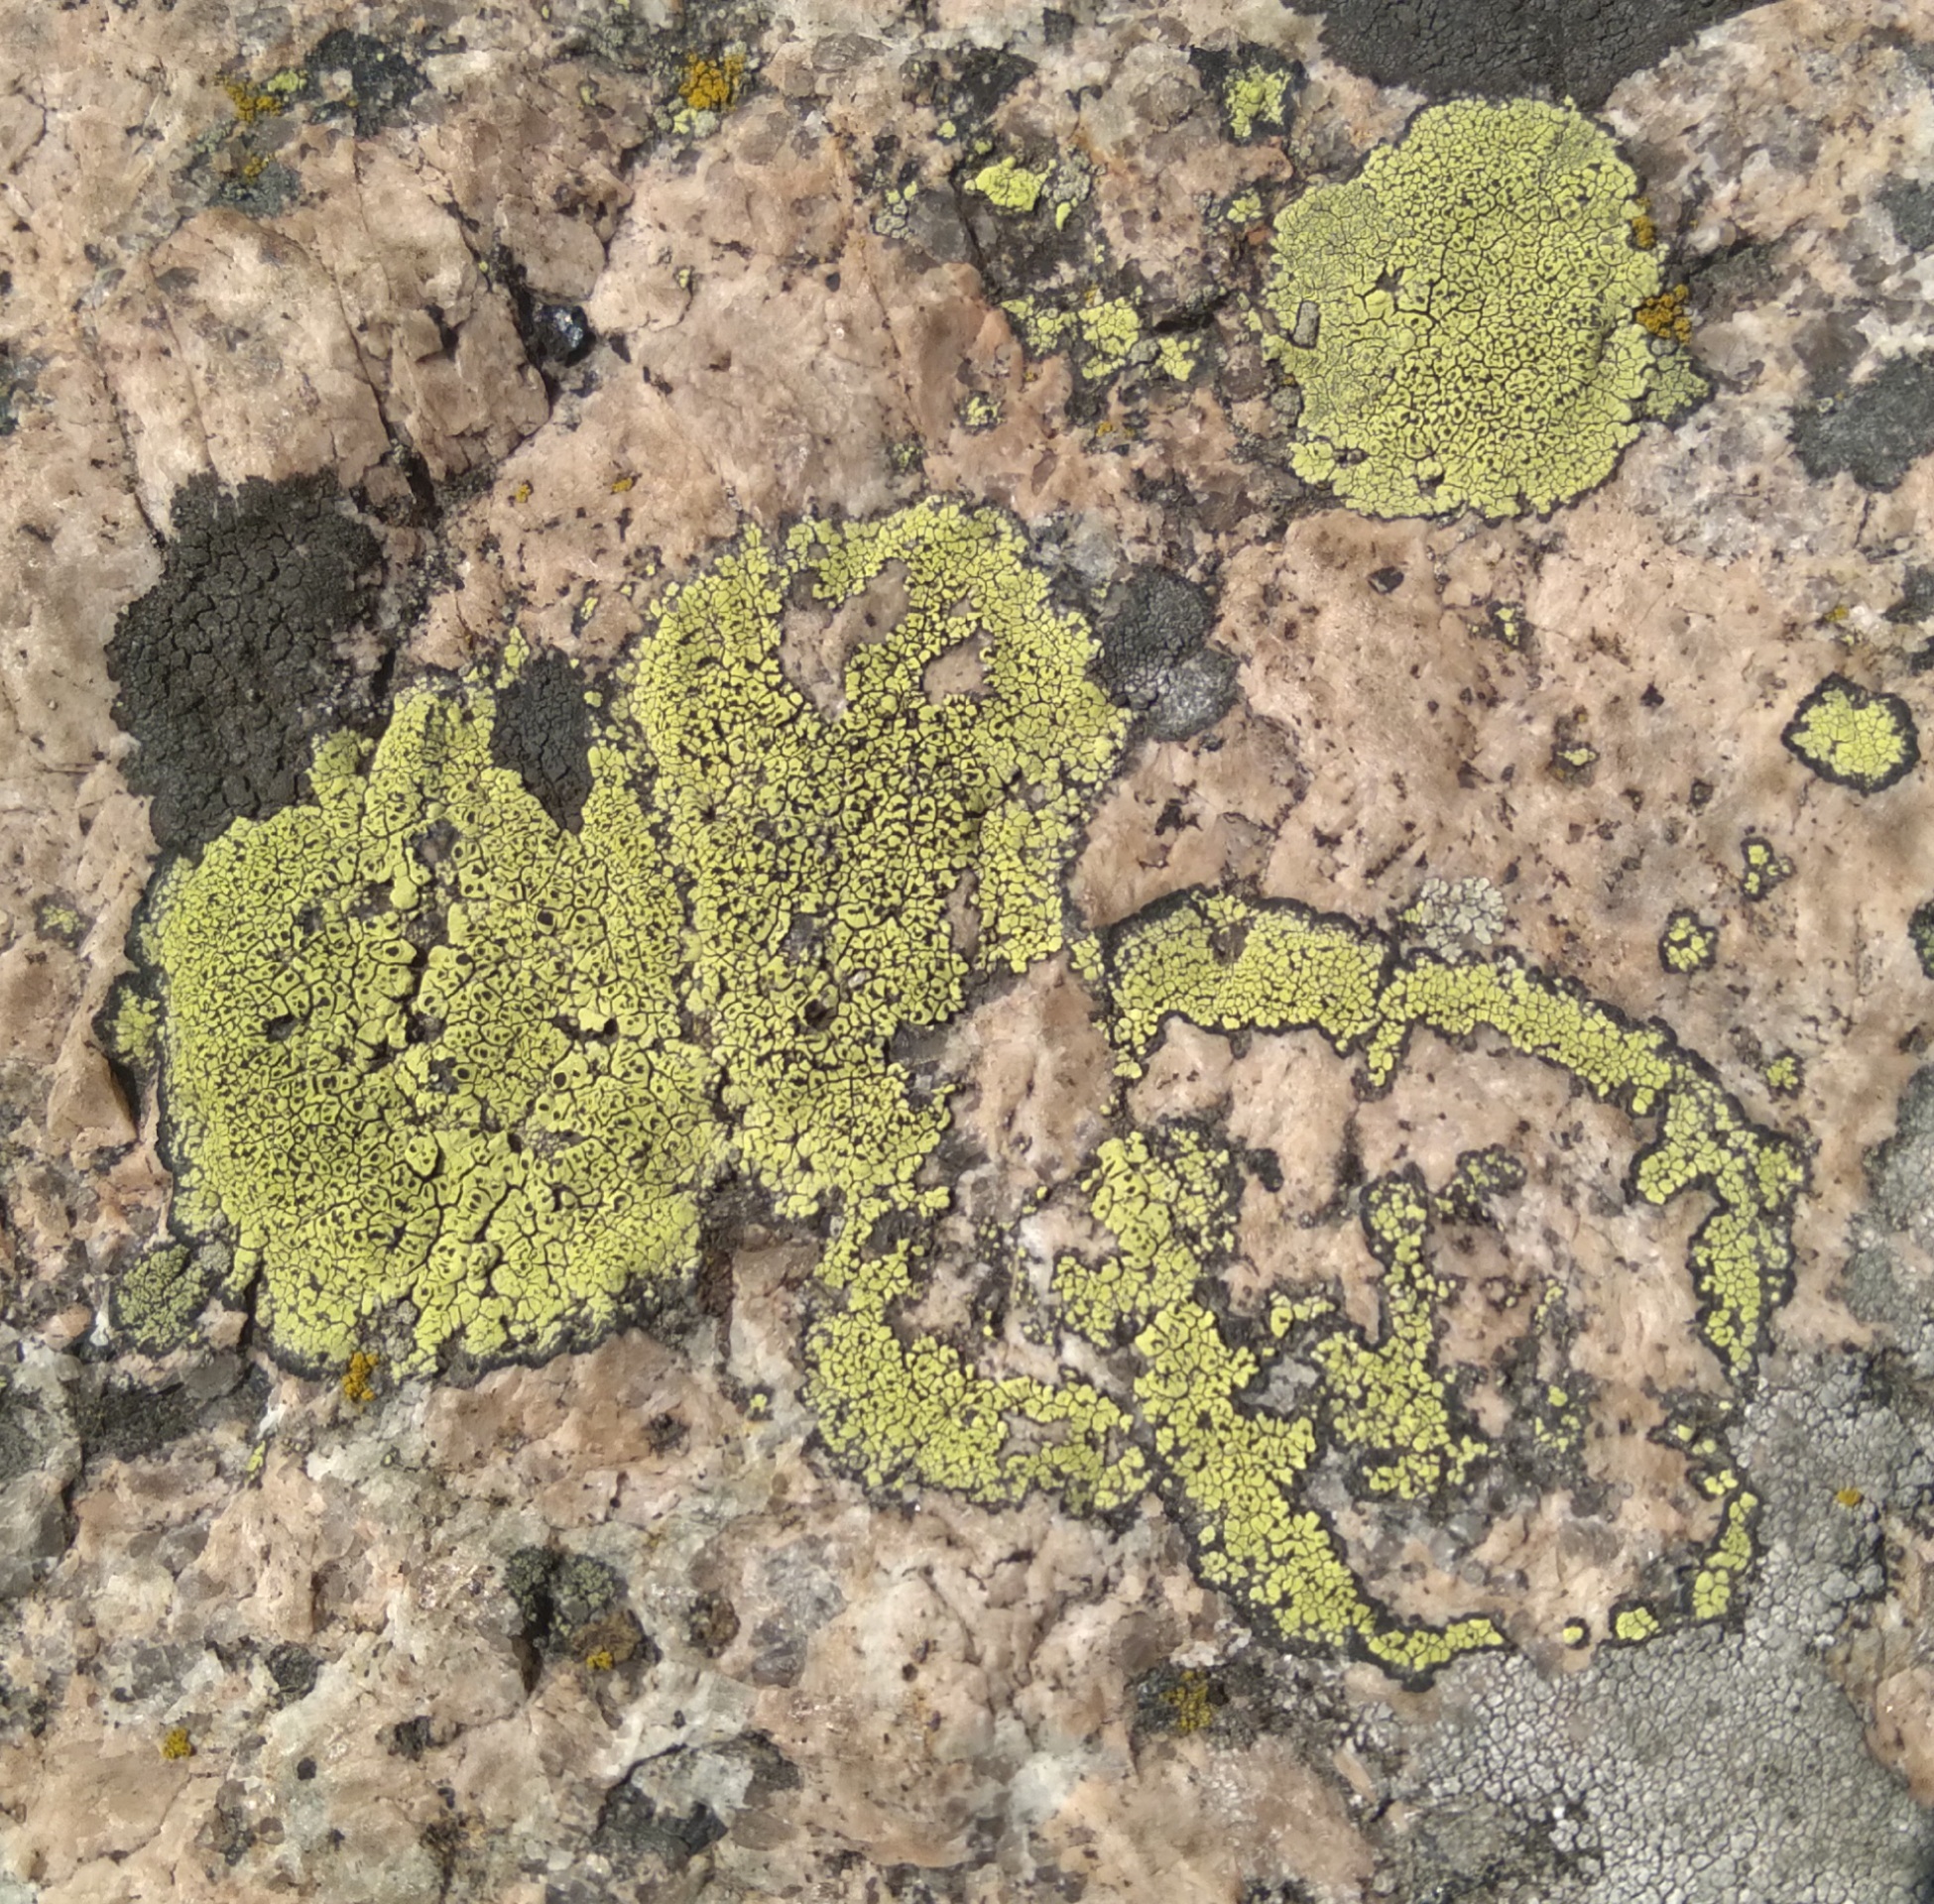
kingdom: Fungi
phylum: Ascomycota
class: Lecanoromycetes
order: Rhizocarpales
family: Rhizocarpaceae
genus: Rhizocarpon
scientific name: Rhizocarpon lecanorinum
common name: Crescent map lichen
